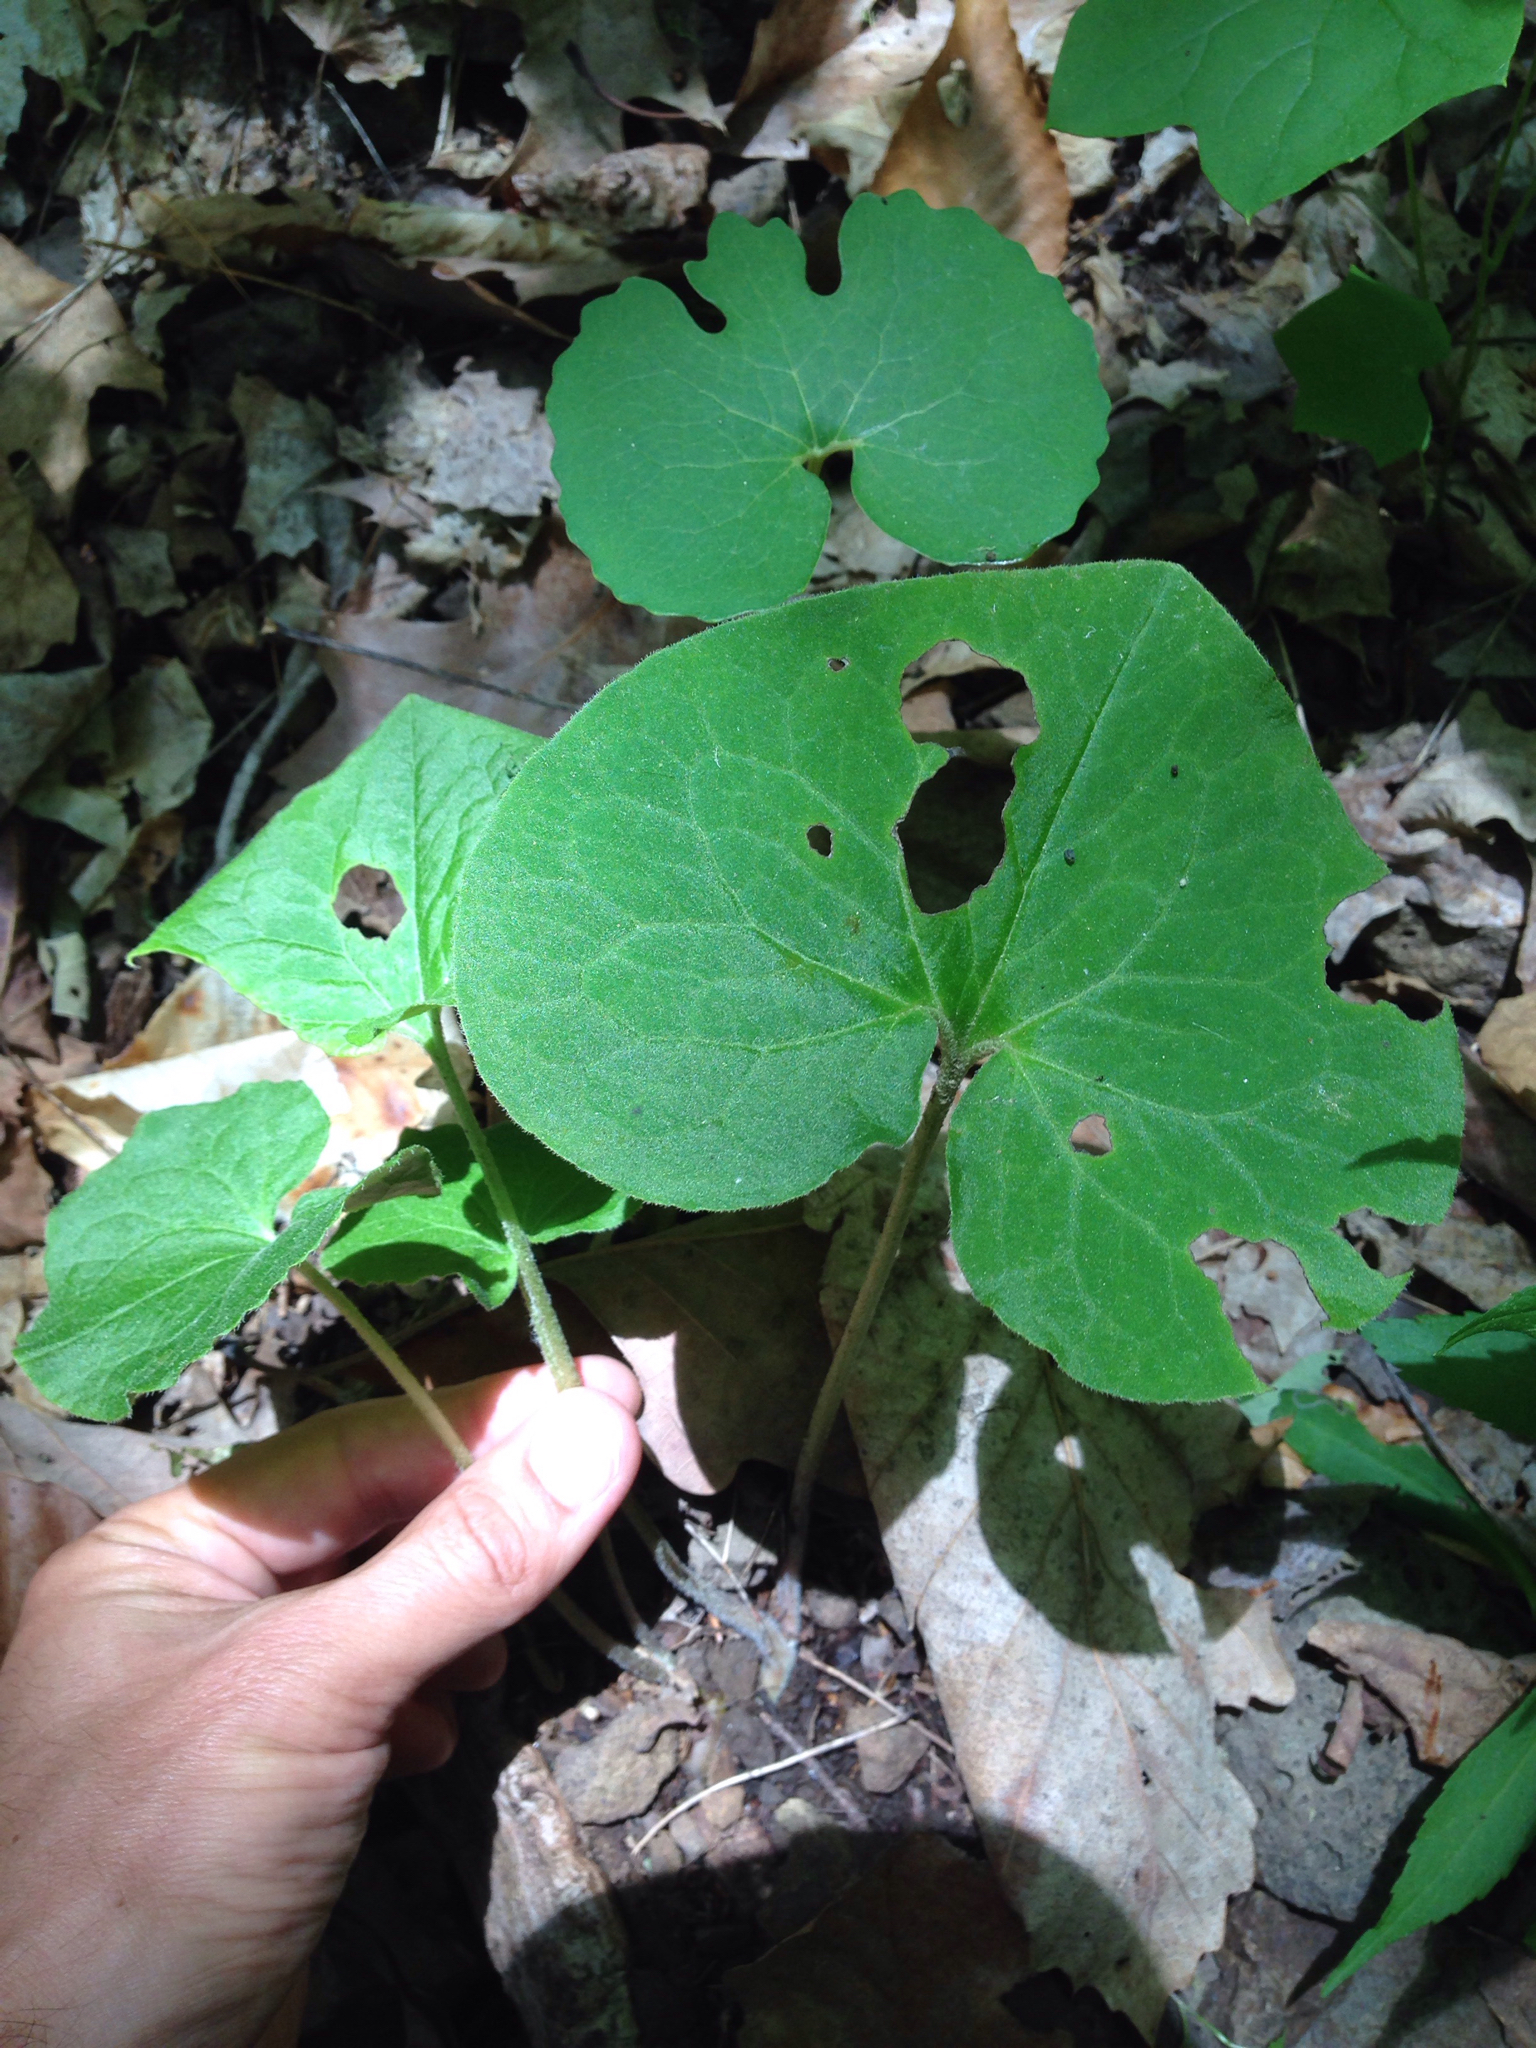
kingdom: Plantae
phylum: Tracheophyta
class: Magnoliopsida
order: Piperales
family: Aristolochiaceae
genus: Asarum
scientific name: Asarum canadense
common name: Wild ginger
